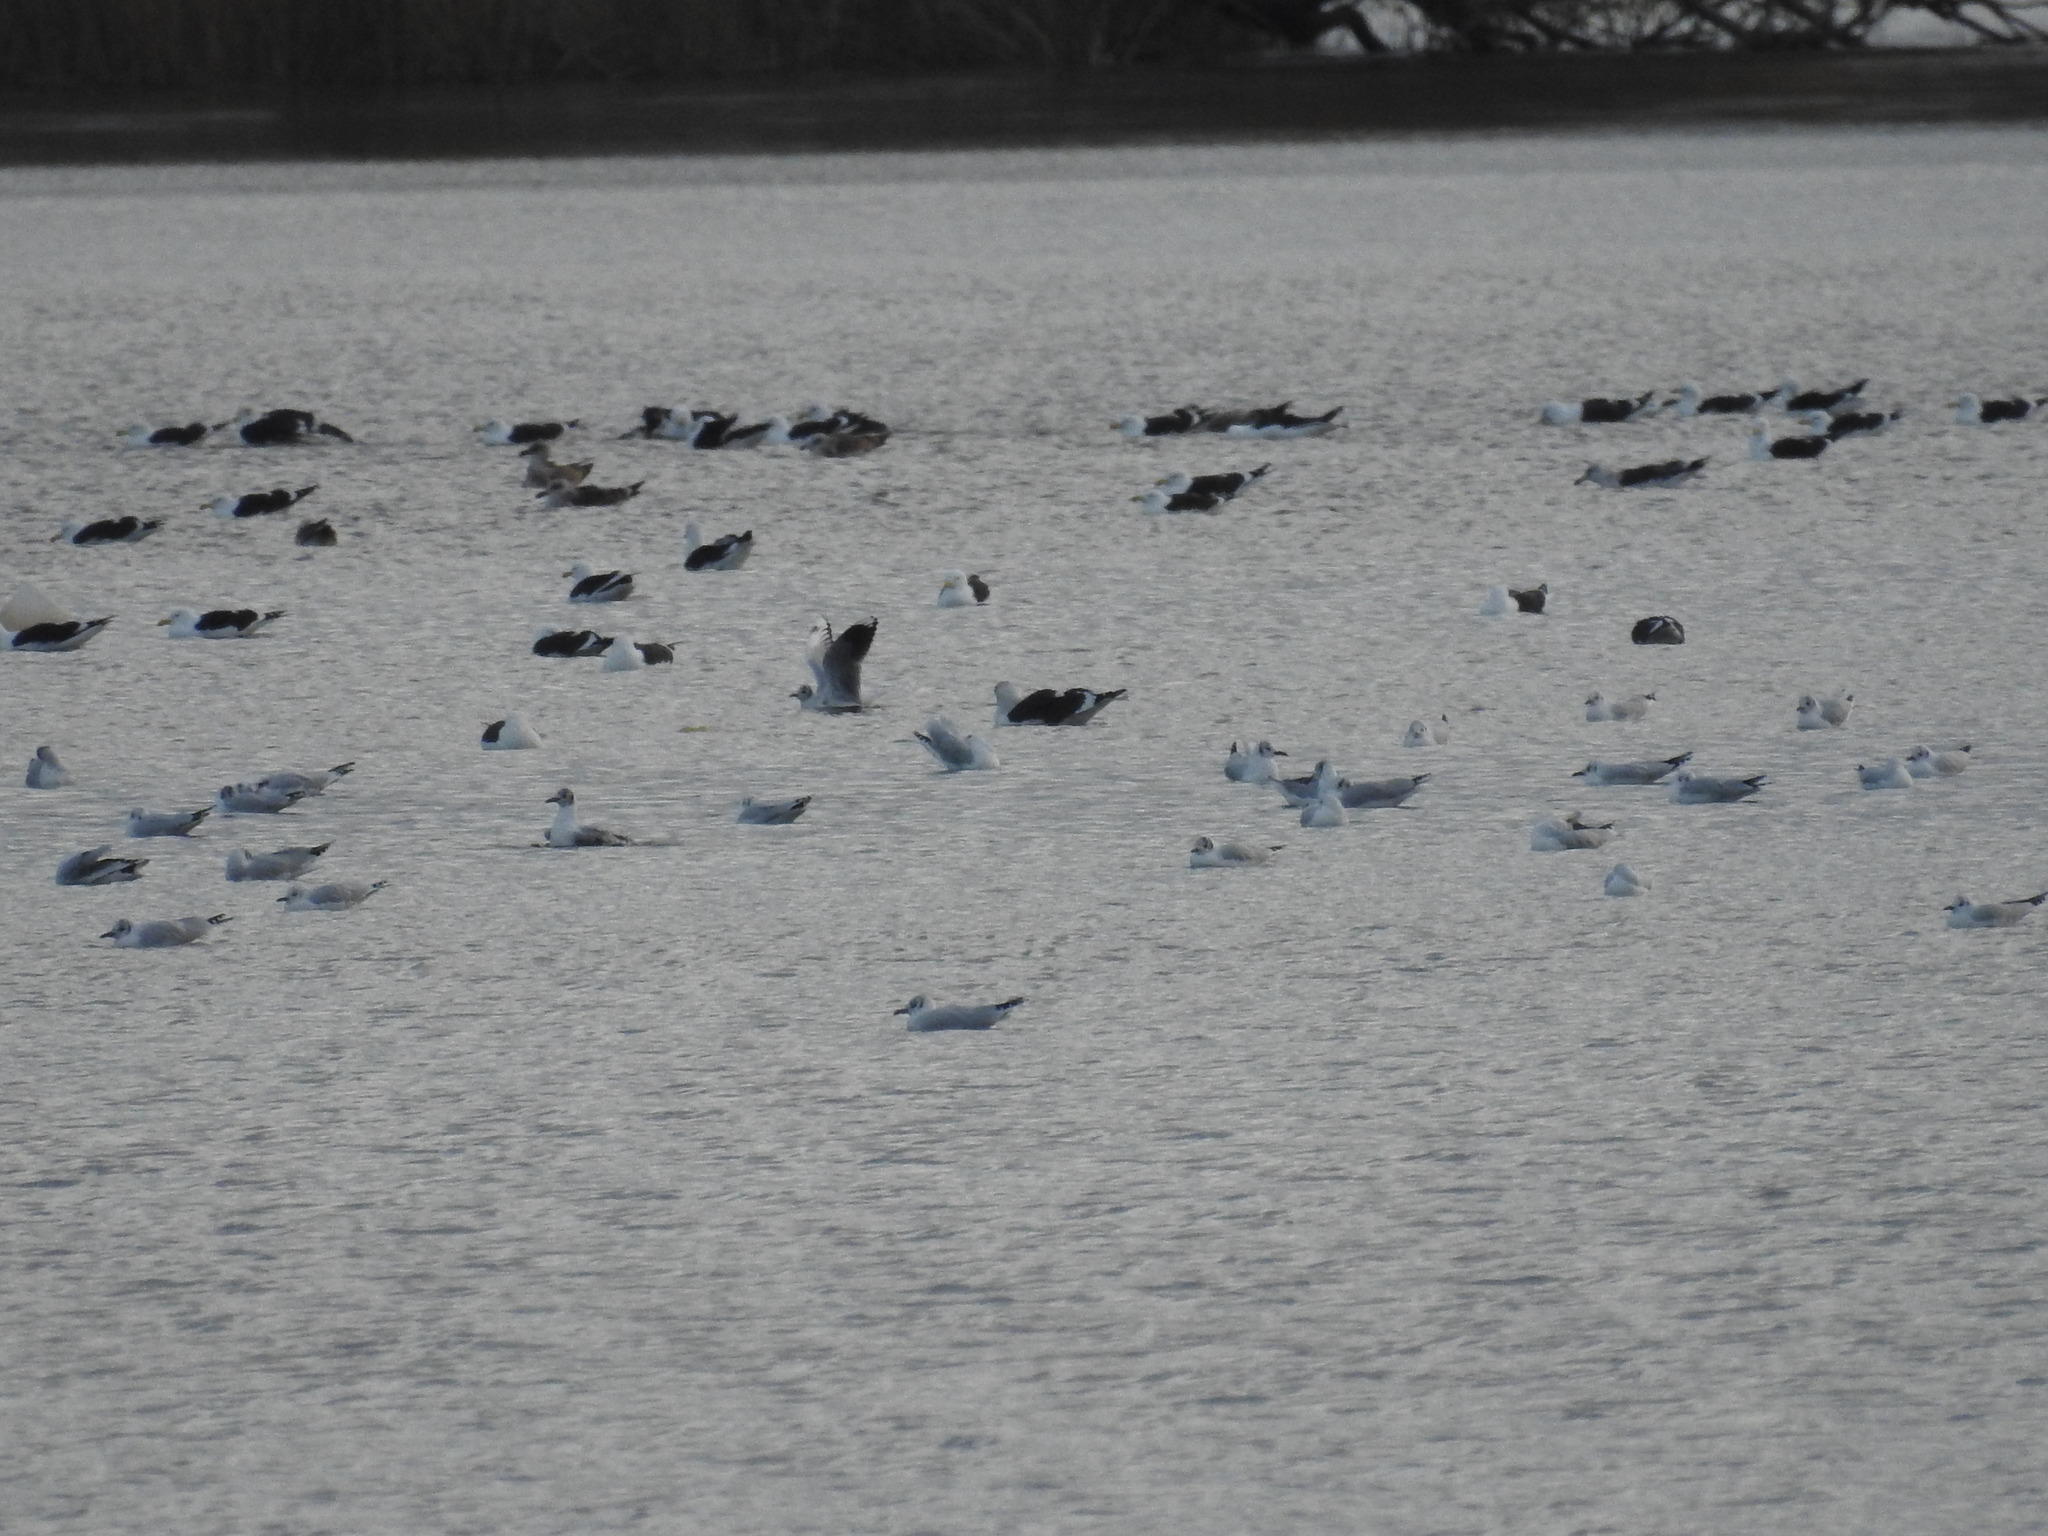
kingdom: Animalia
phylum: Chordata
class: Aves
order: Charadriiformes
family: Laridae
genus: Larus
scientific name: Larus dominicanus
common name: Kelp gull
